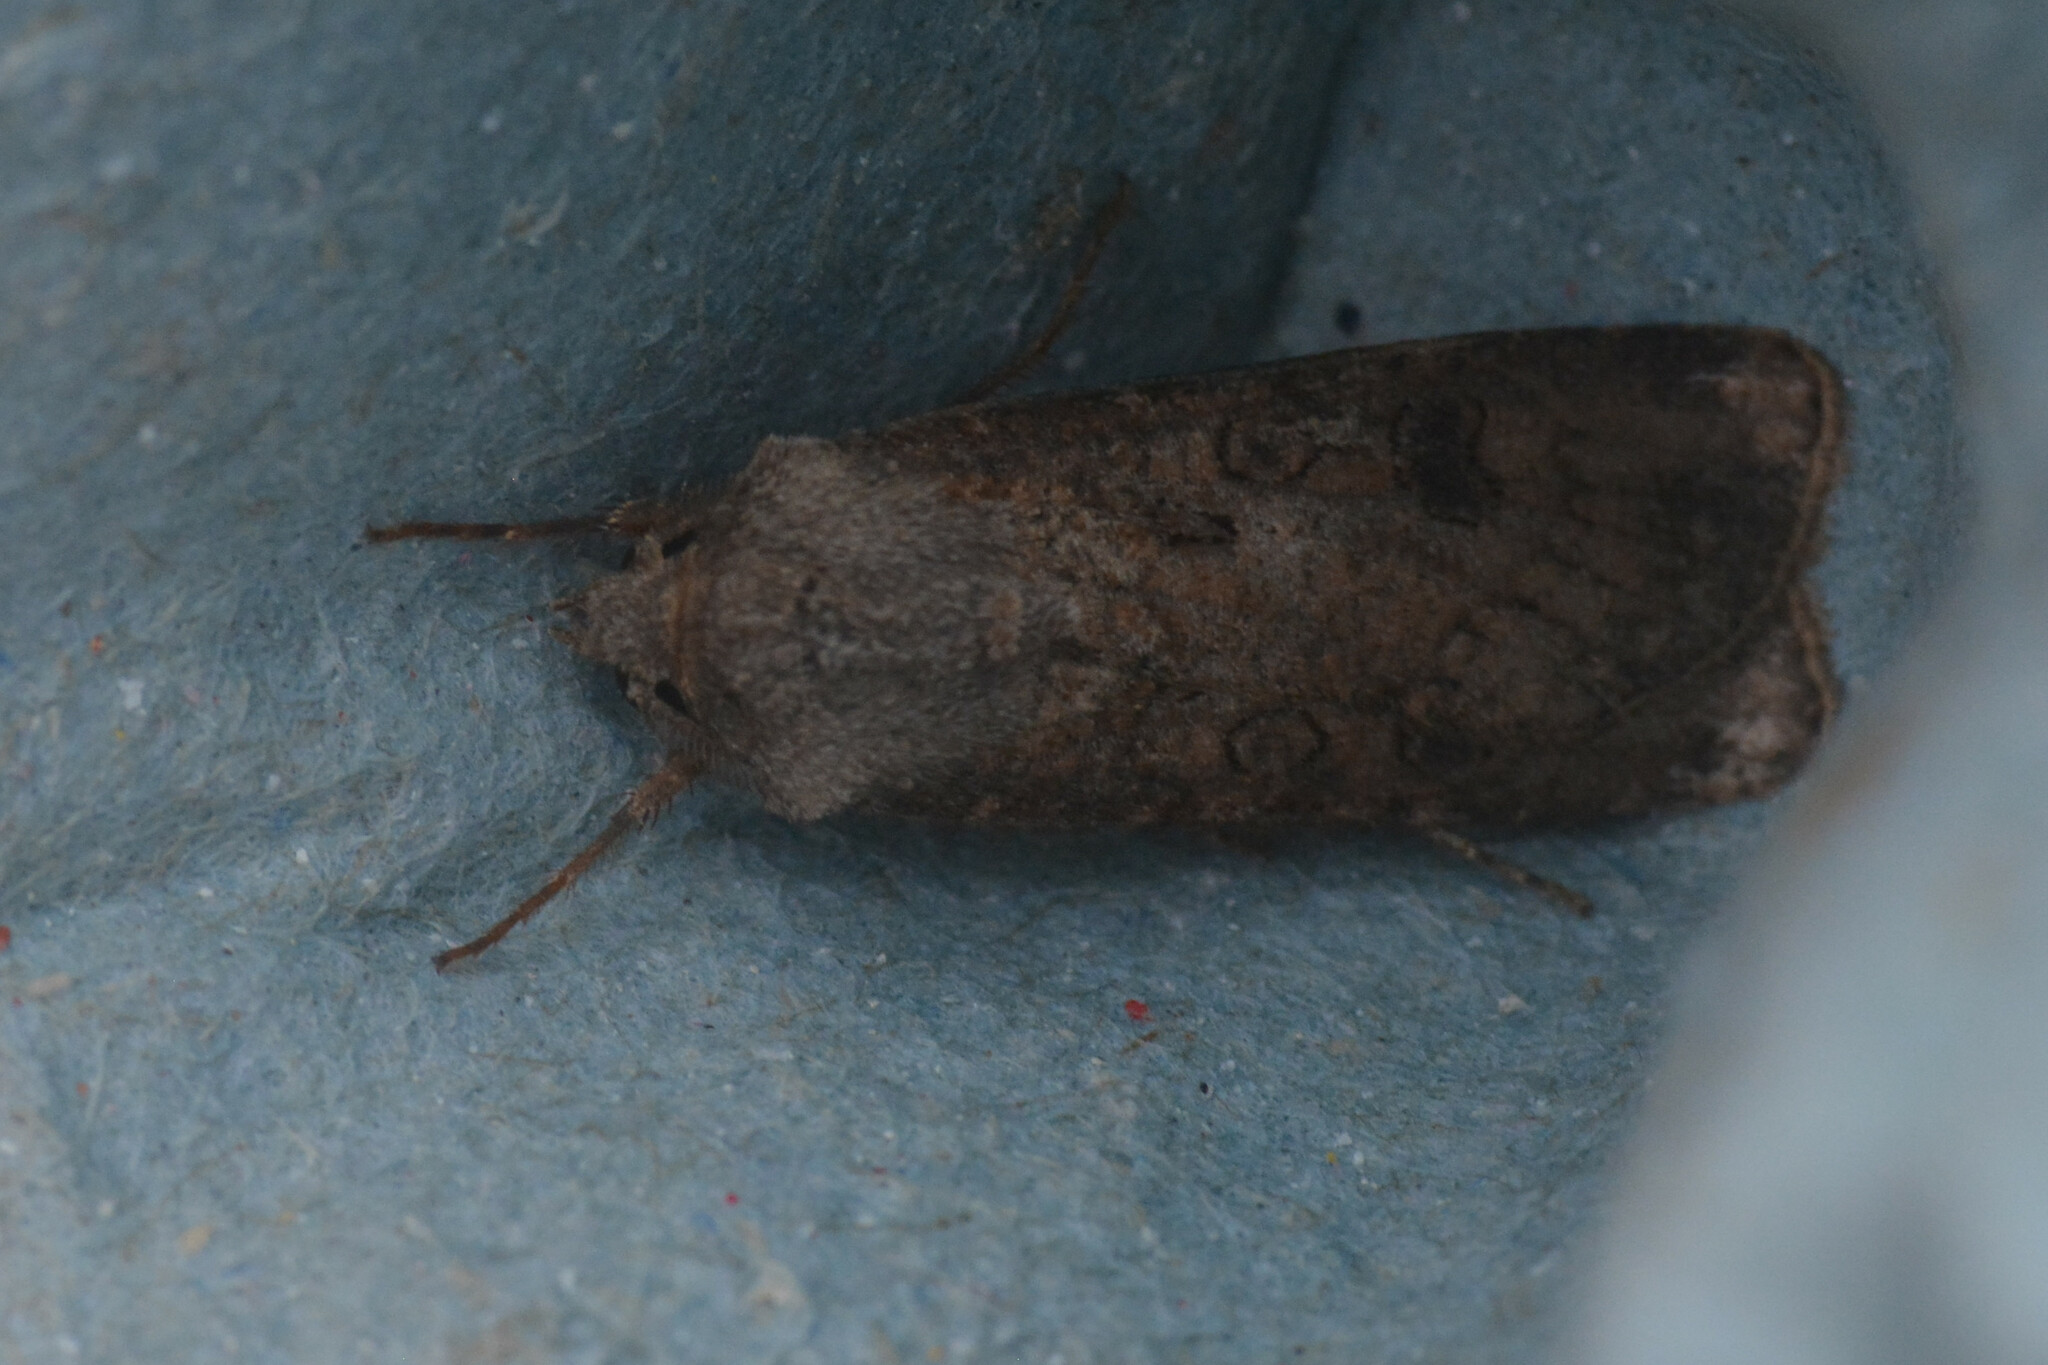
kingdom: Animalia
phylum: Arthropoda
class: Insecta
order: Lepidoptera
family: Noctuidae
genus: Agrotis
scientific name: Agrotis segetum
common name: Turnip moth
